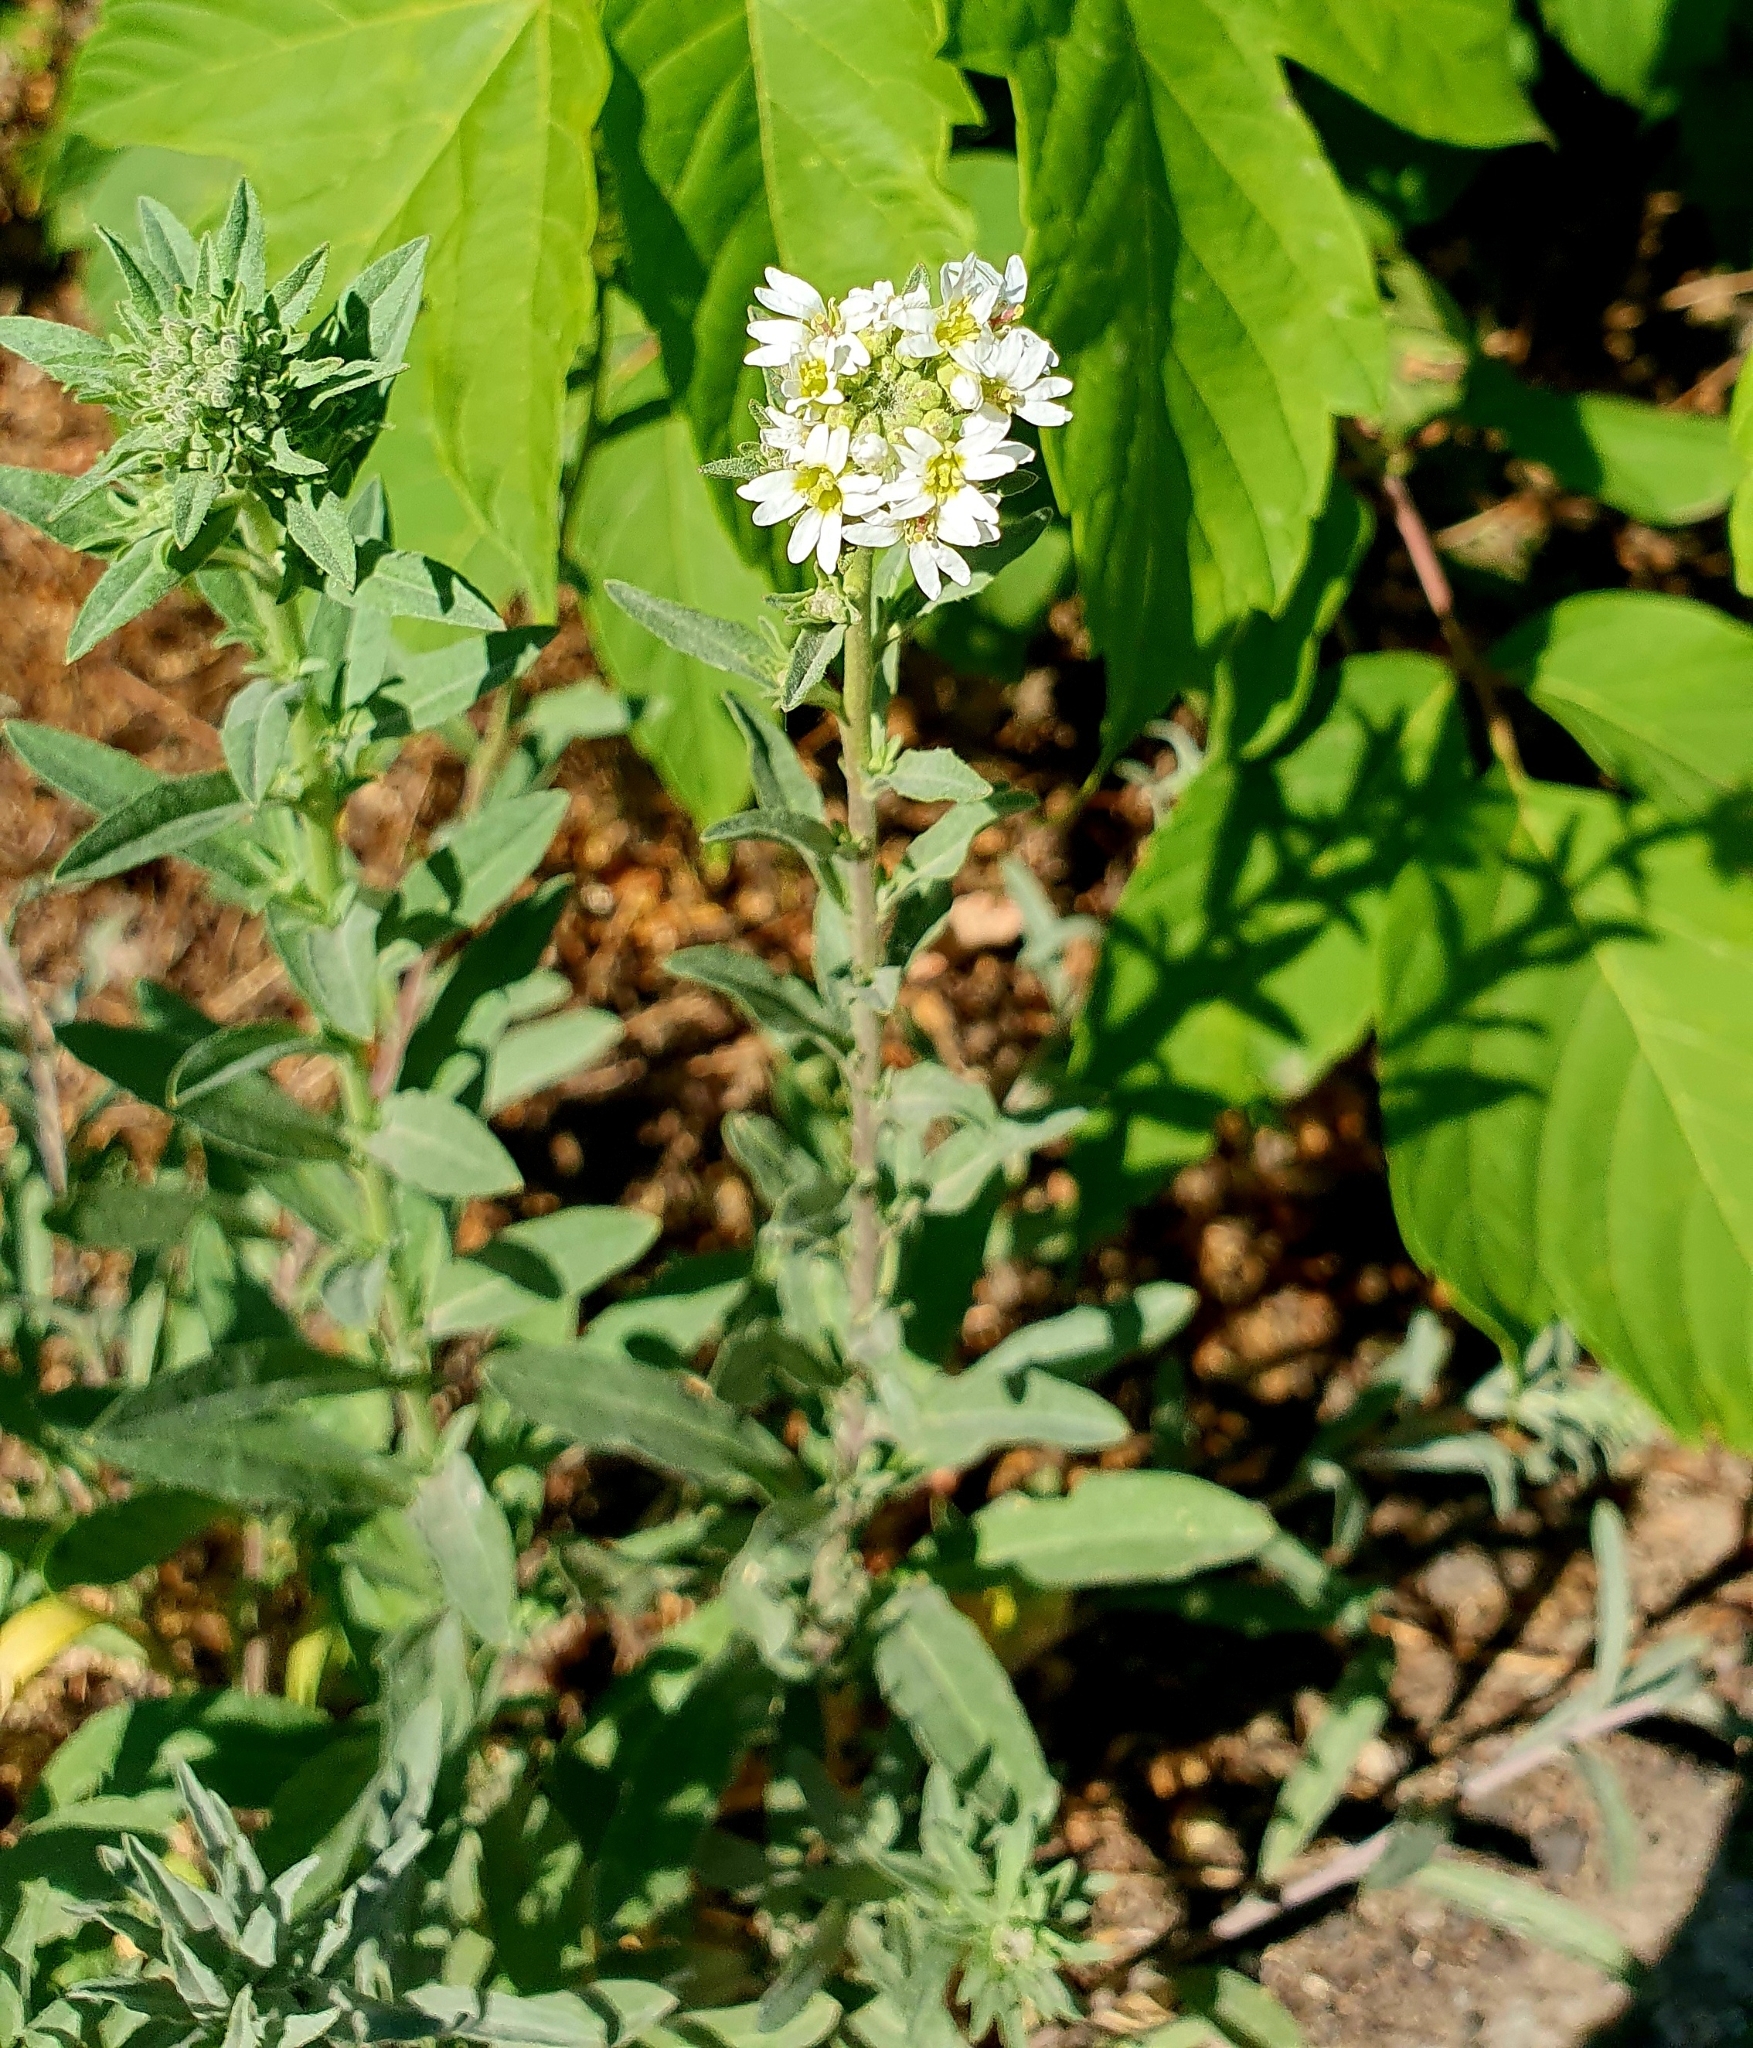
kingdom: Plantae
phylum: Tracheophyta
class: Magnoliopsida
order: Brassicales
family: Brassicaceae
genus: Berteroa
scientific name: Berteroa incana
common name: Hoary alison
